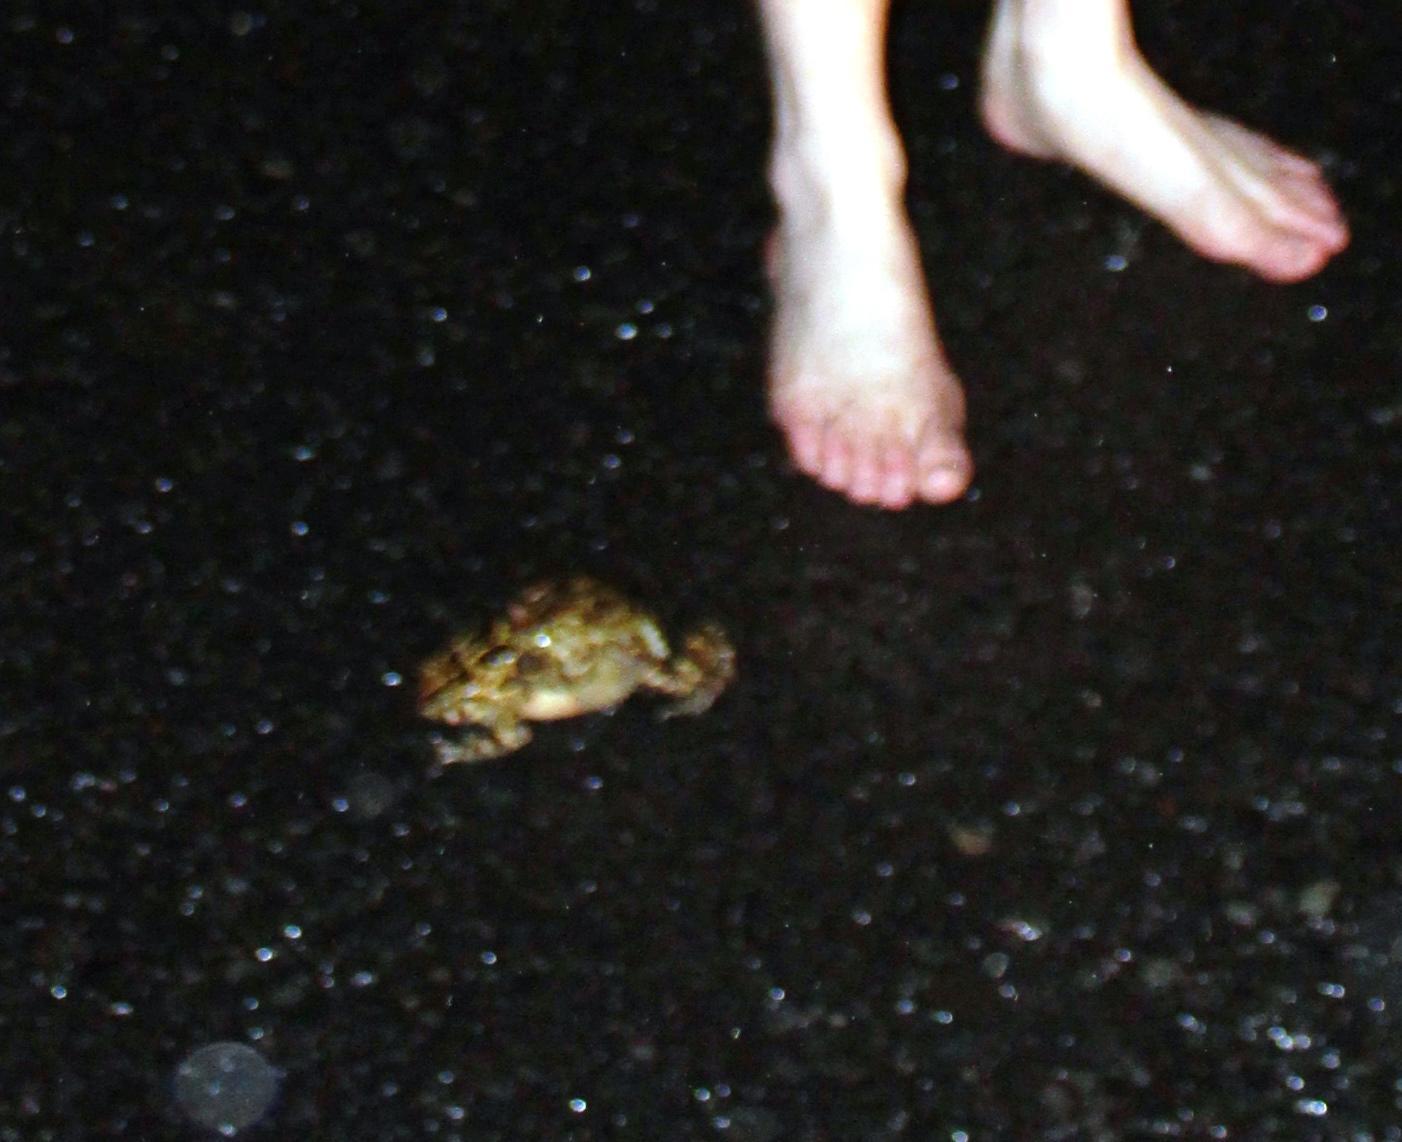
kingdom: Animalia
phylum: Chordata
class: Amphibia
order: Anura
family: Bufonidae
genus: Sclerophrys
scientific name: Sclerophrys pantherina
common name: Panther toad
